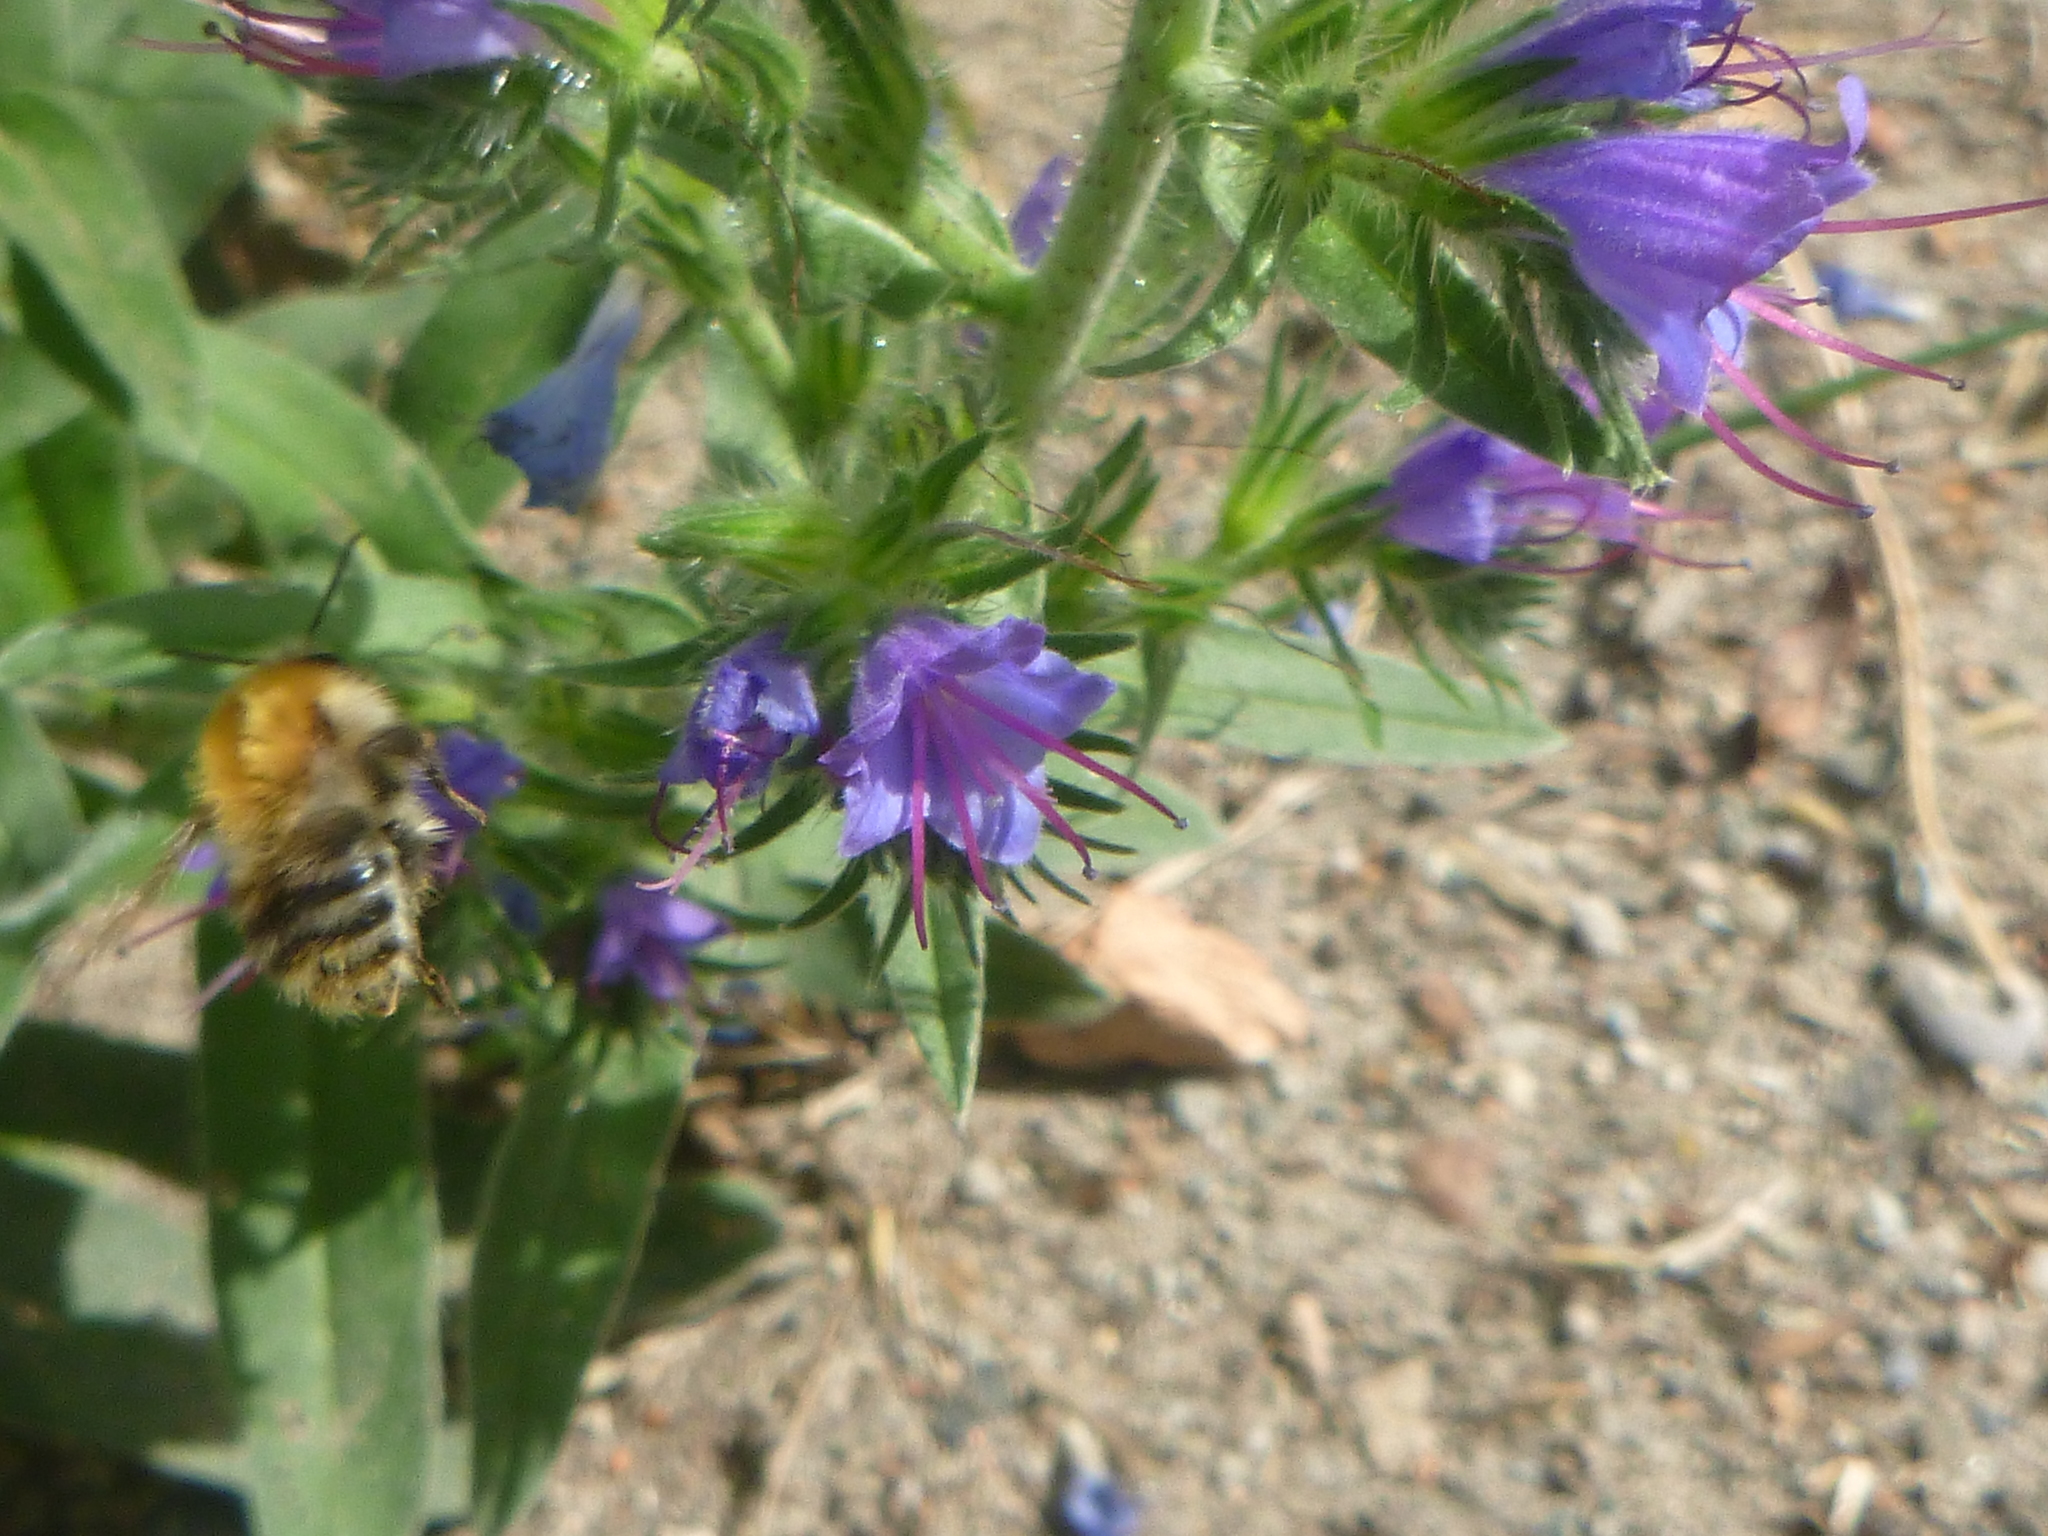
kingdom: Animalia
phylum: Arthropoda
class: Insecta
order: Hymenoptera
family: Apidae
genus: Bombus
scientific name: Bombus pascuorum
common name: Common carder bee
